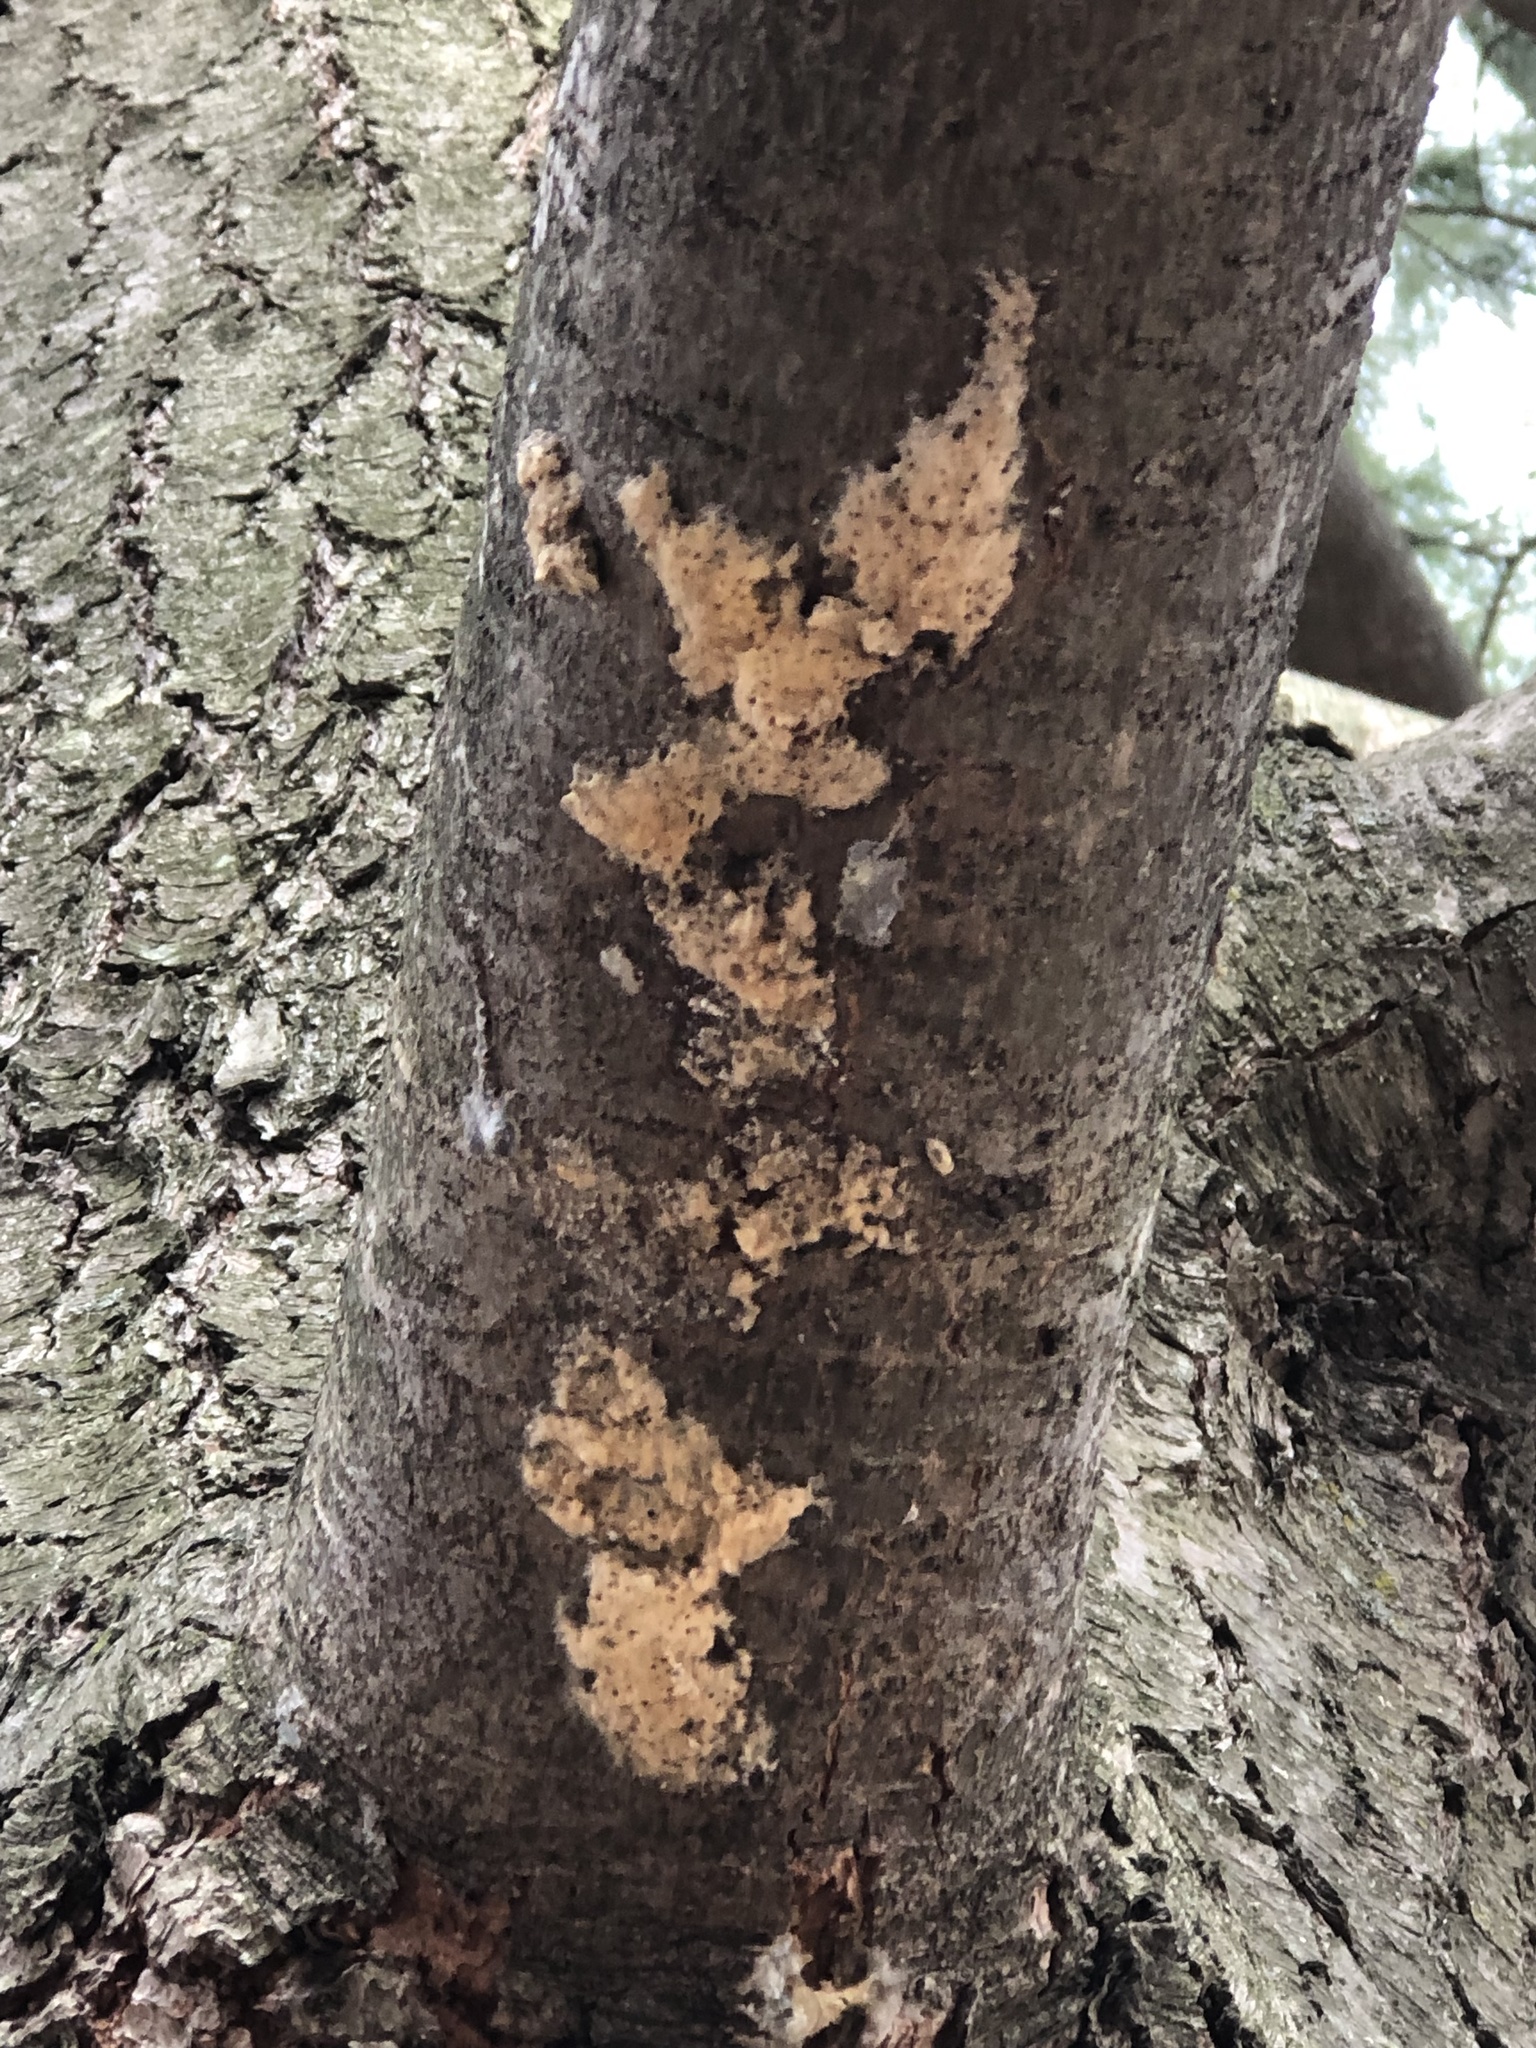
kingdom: Animalia
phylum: Arthropoda
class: Insecta
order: Lepidoptera
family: Erebidae
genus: Lymantria
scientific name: Lymantria dispar
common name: Gypsy moth
